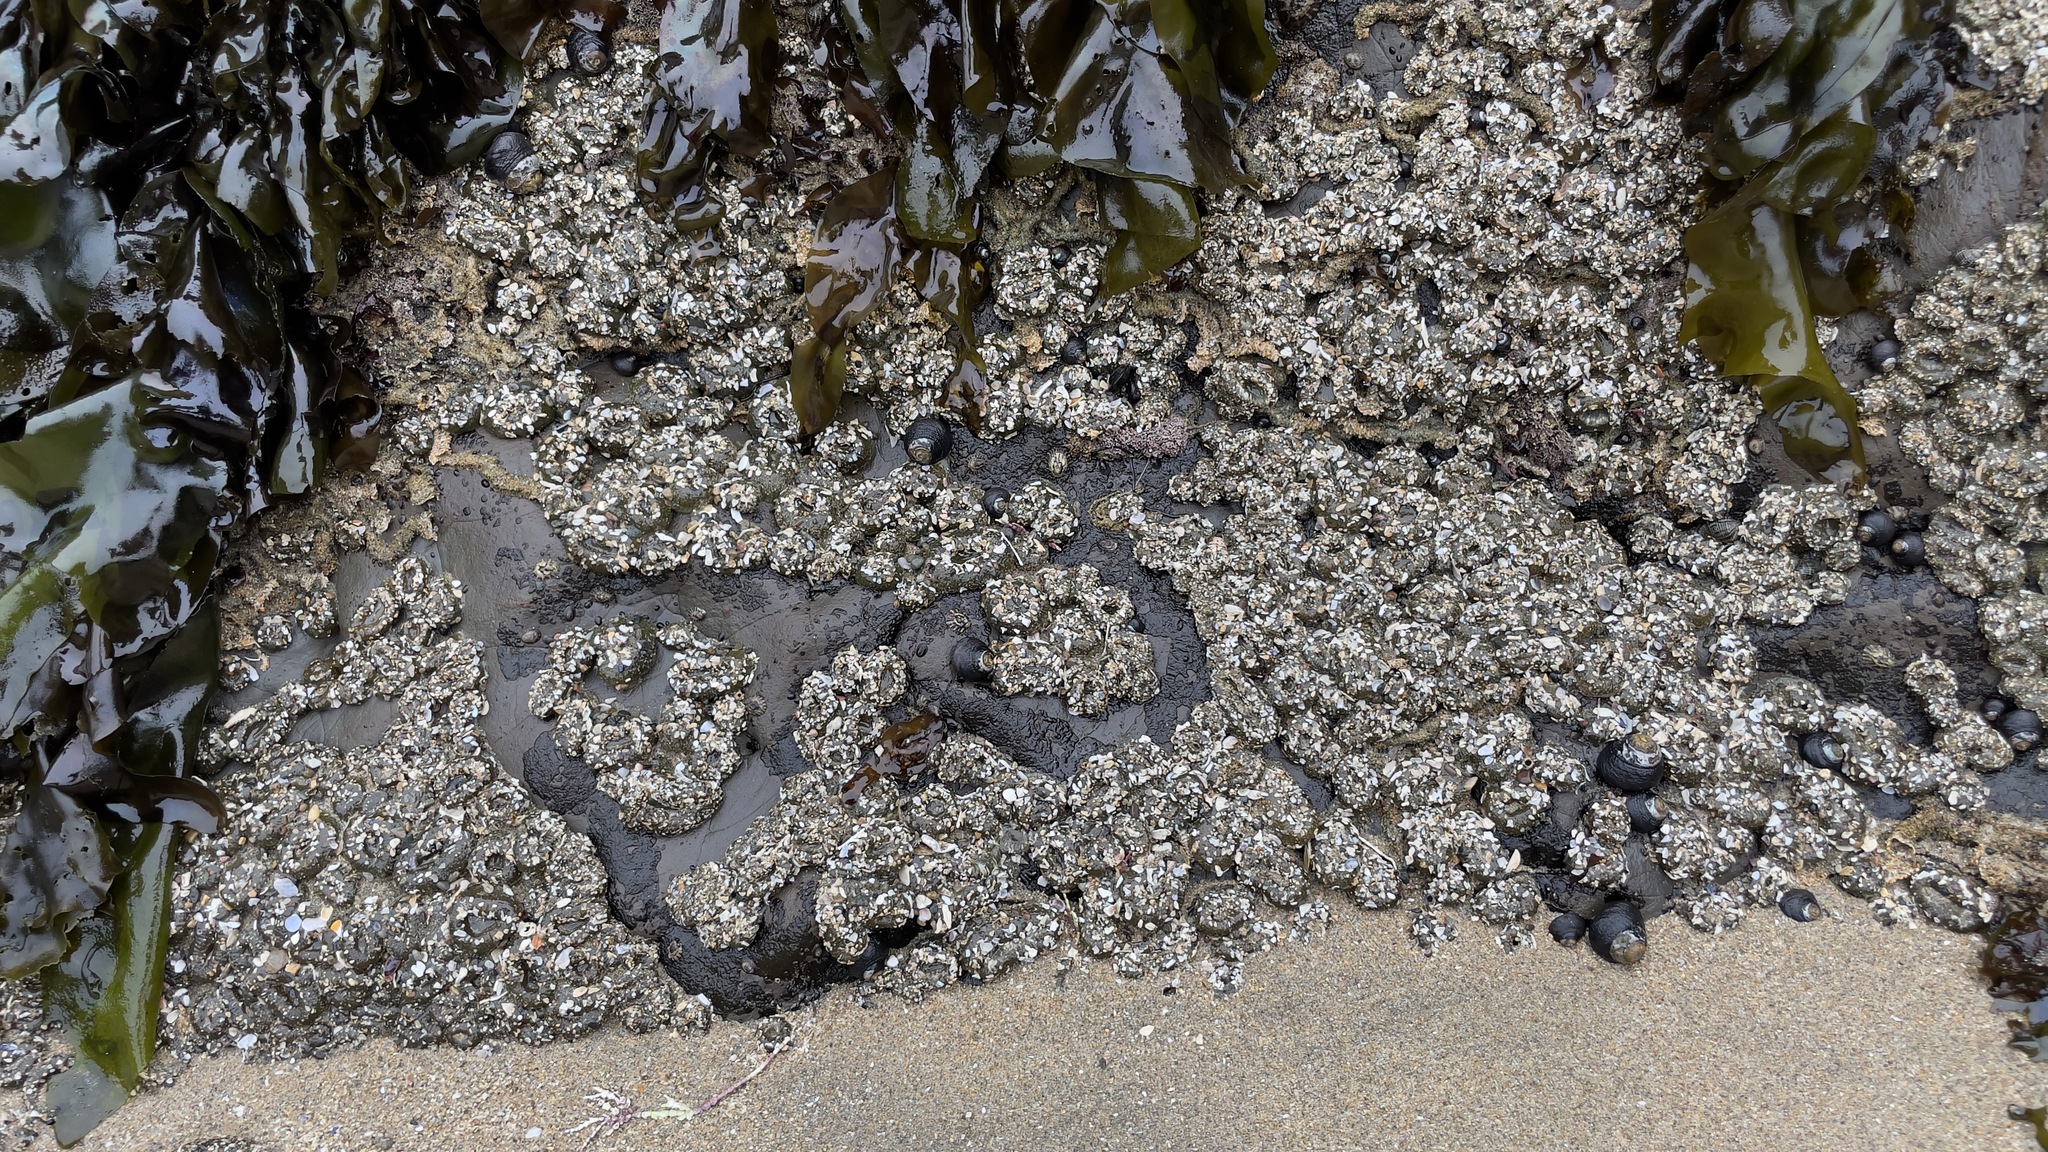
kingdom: Animalia
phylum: Annelida
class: Polychaeta
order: Sabellida
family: Sabellariidae
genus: Phragmatopoma
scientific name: Phragmatopoma californica
